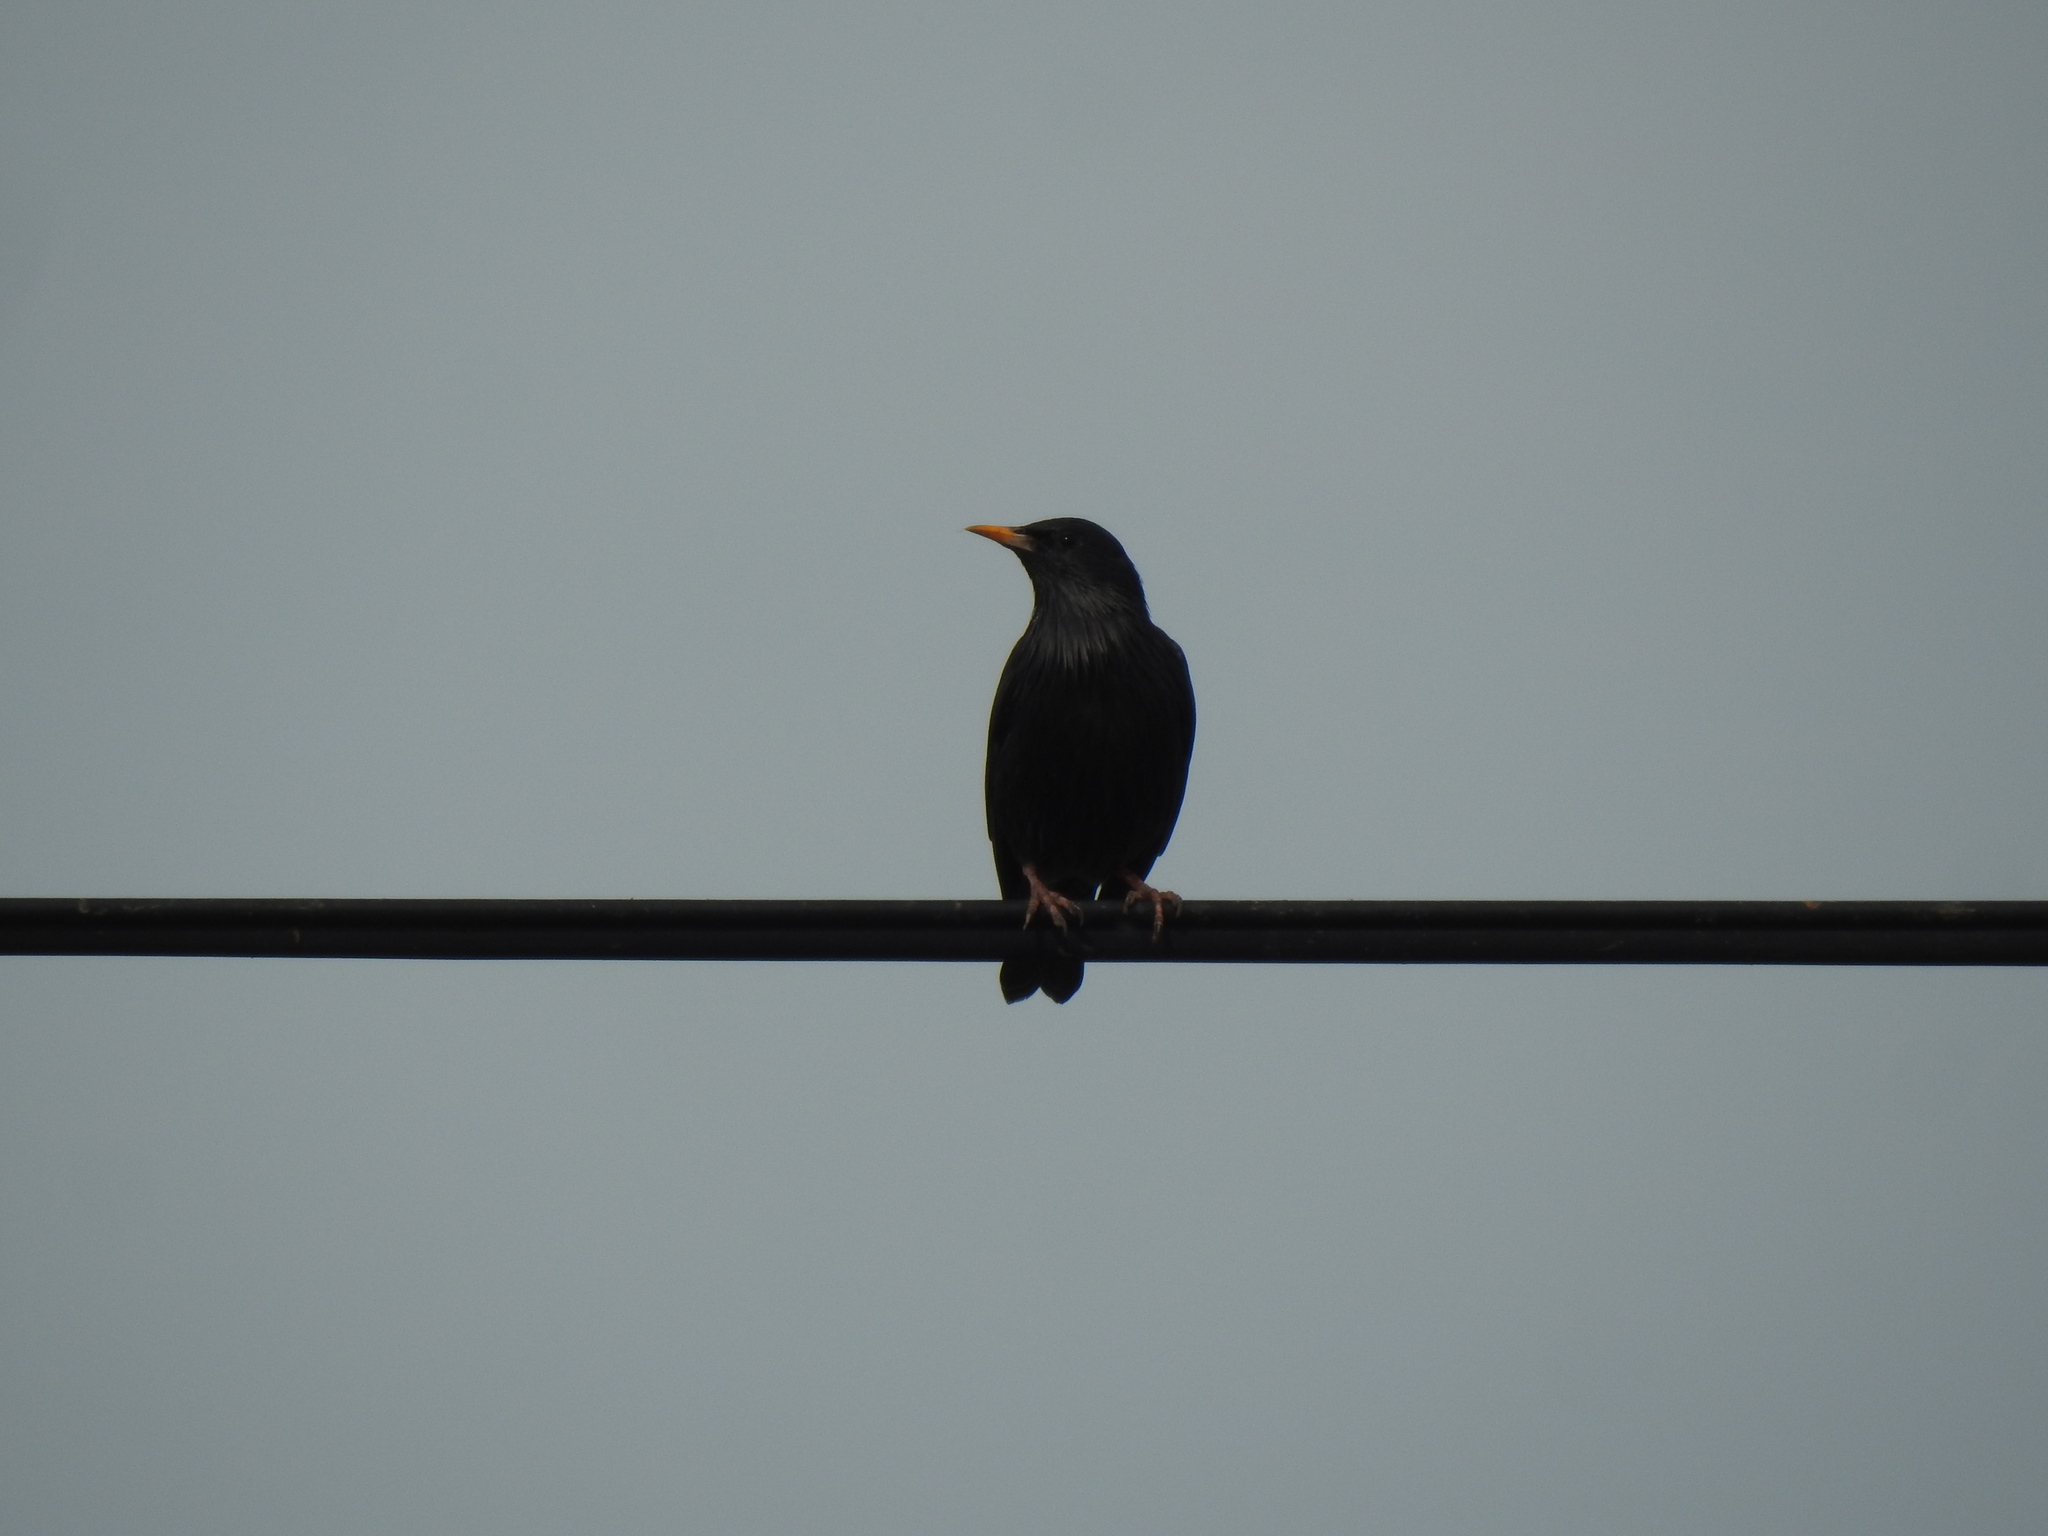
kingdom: Animalia
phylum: Chordata
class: Aves
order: Passeriformes
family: Sturnidae
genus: Sturnus
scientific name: Sturnus unicolor
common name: Spotless starling
